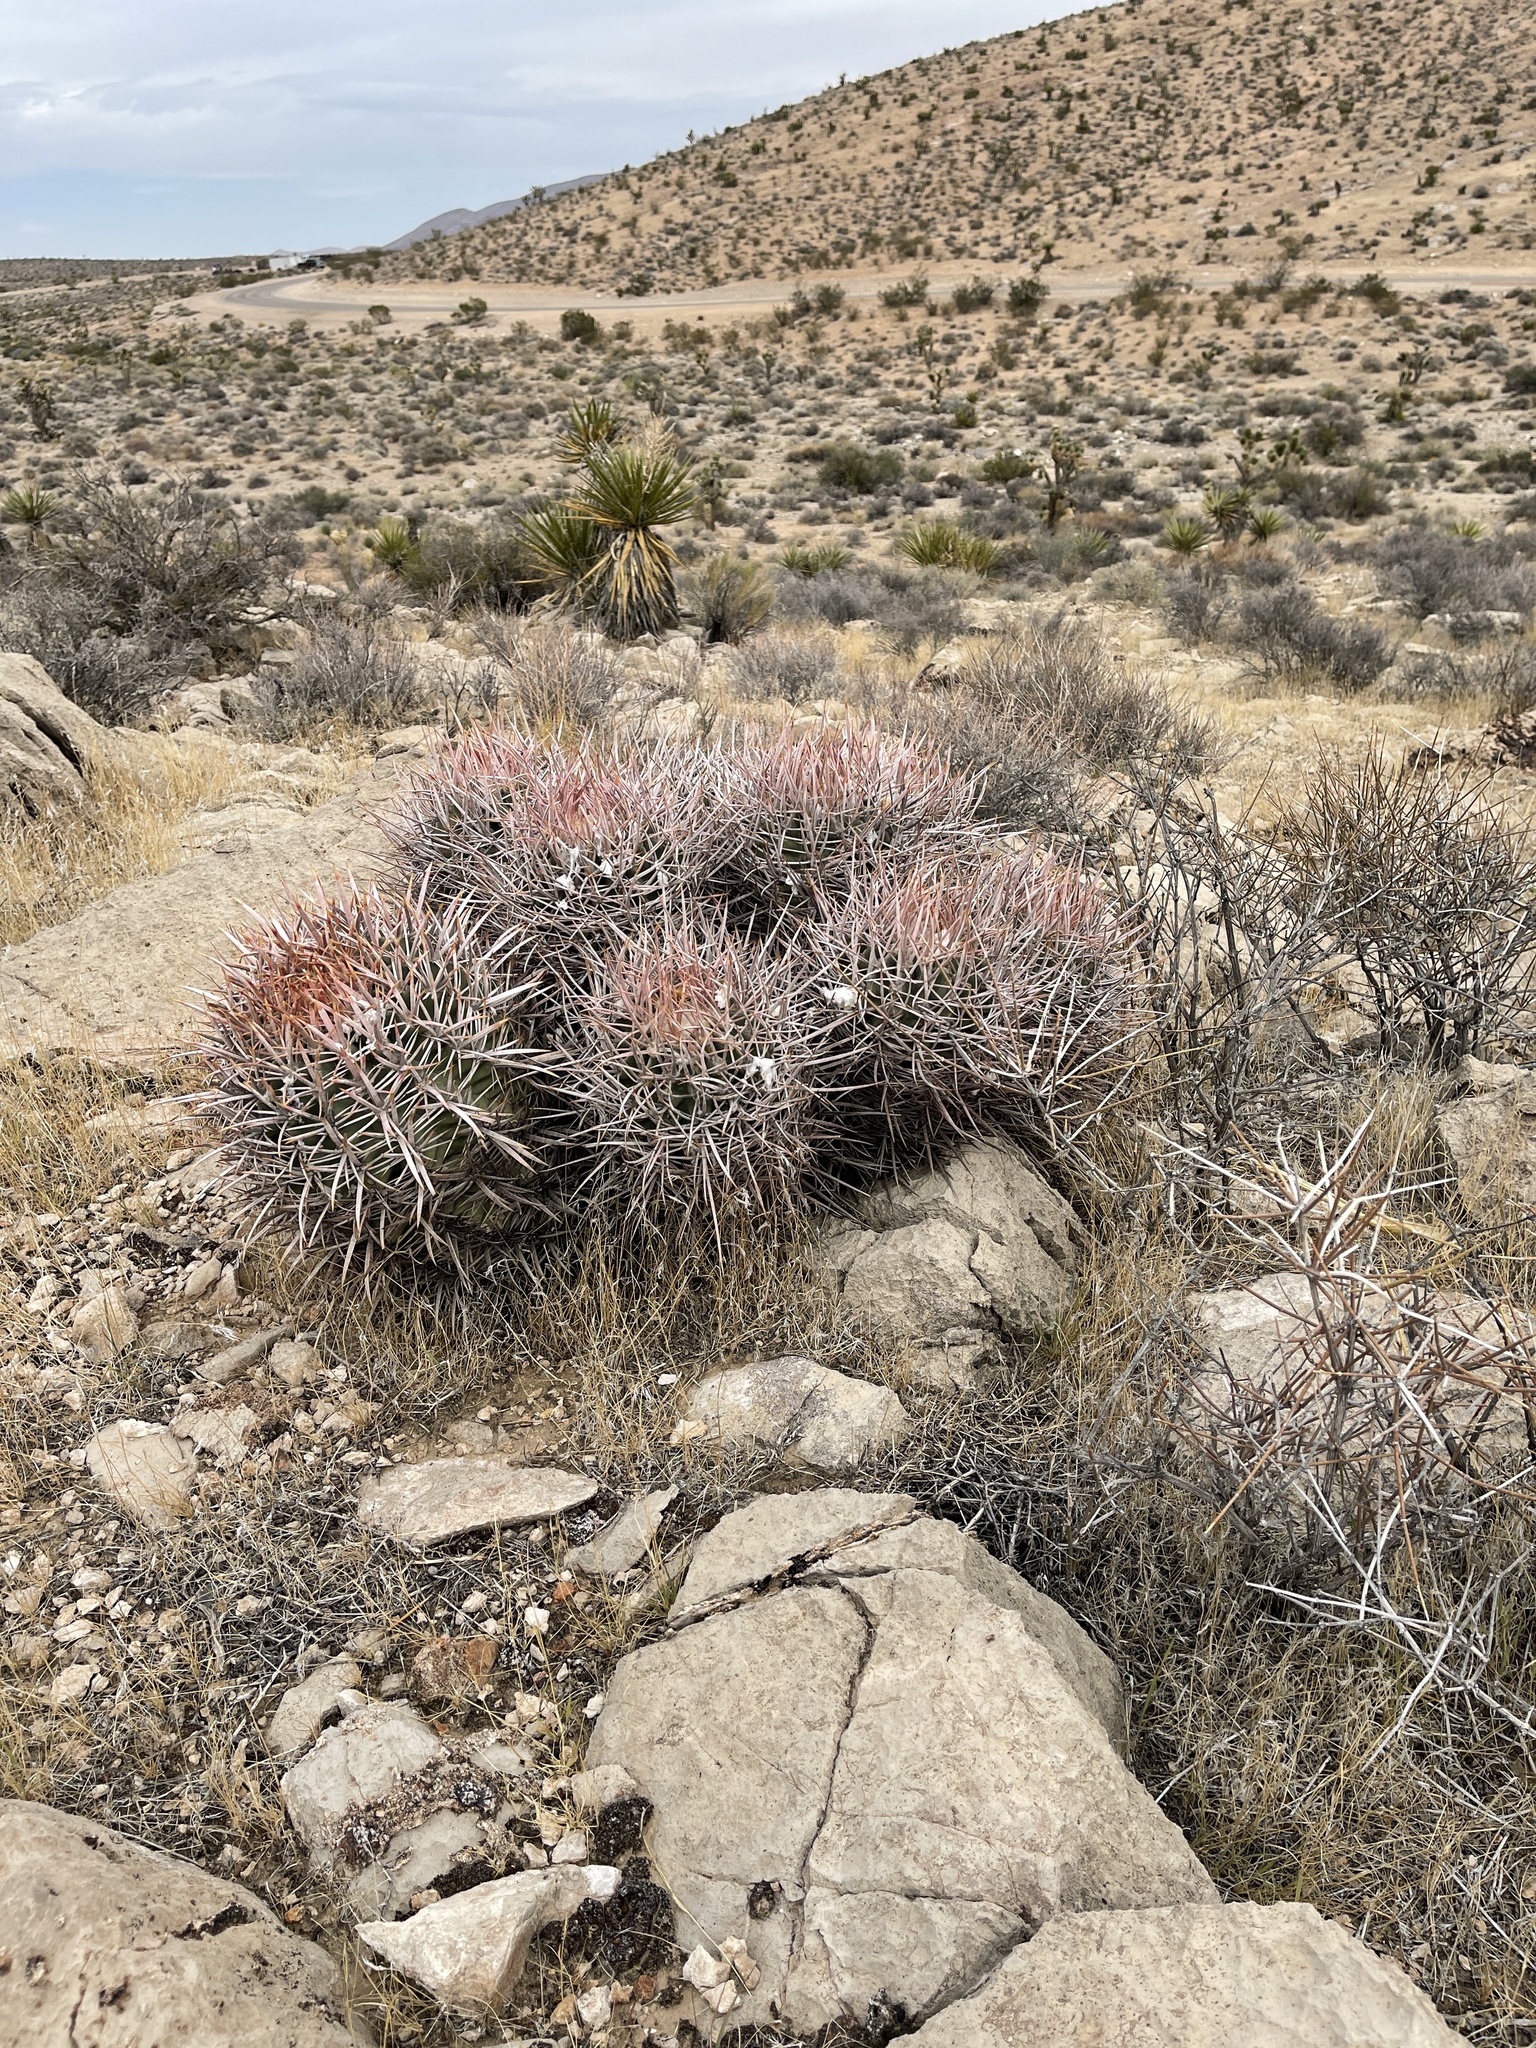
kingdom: Plantae
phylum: Tracheophyta
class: Magnoliopsida
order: Caryophyllales
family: Cactaceae
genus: Echinocactus
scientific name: Echinocactus polycephalus
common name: Cottontop cactus
